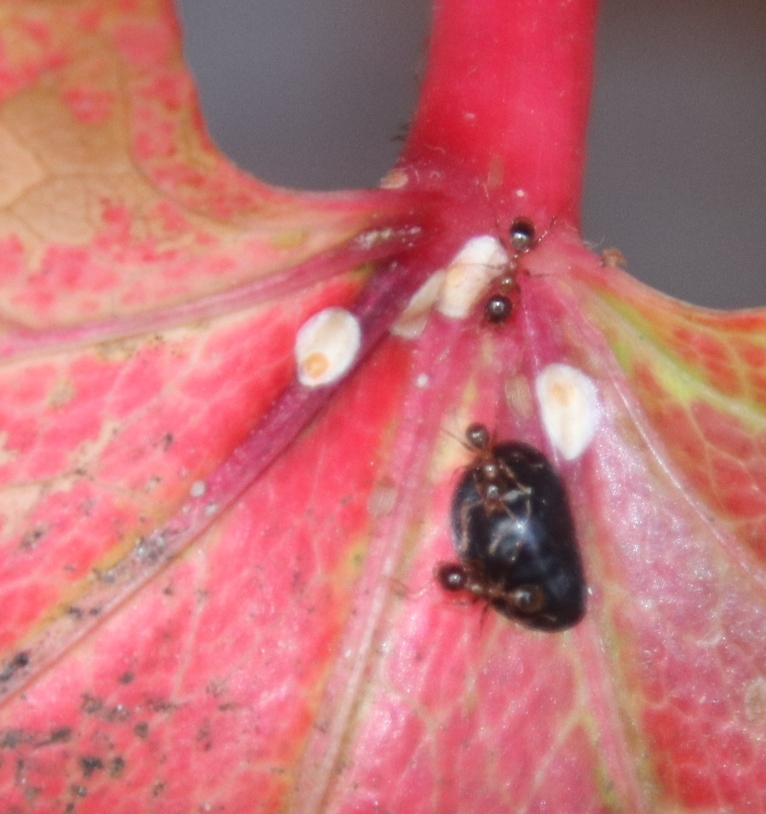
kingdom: Animalia
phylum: Arthropoda
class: Insecta
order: Hemiptera
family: Coccidae
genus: Parasaissetia
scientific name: Parasaissetia nigra
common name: Black scale
